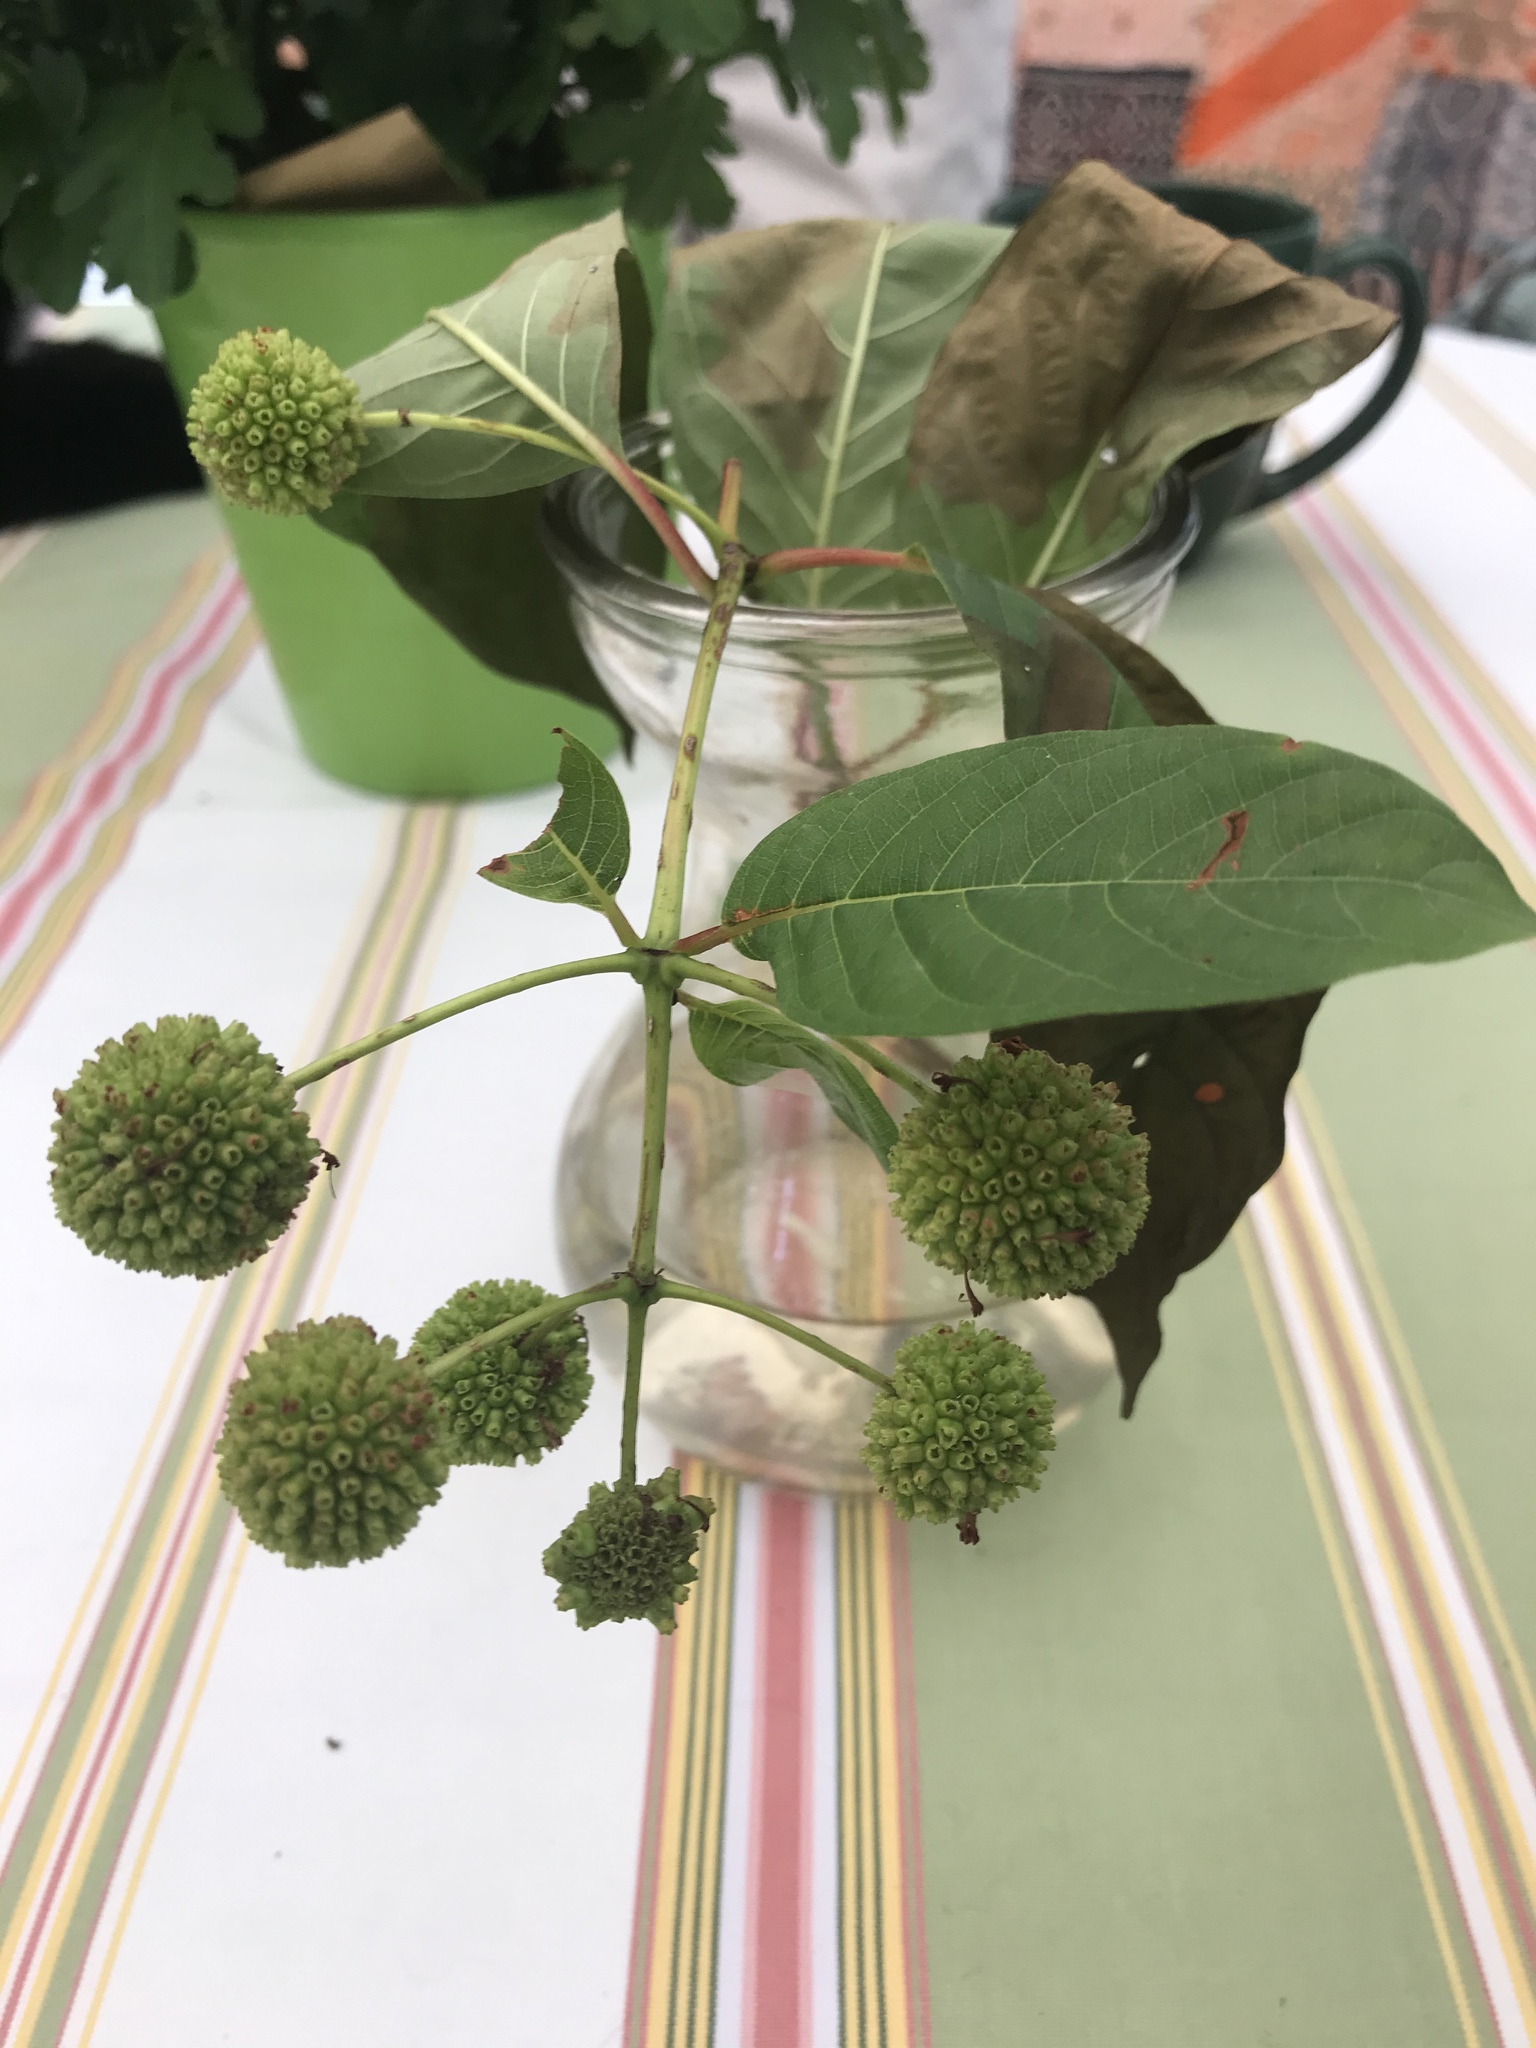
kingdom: Plantae
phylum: Tracheophyta
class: Magnoliopsida
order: Gentianales
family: Rubiaceae
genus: Cephalanthus
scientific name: Cephalanthus occidentalis
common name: Button-willow
